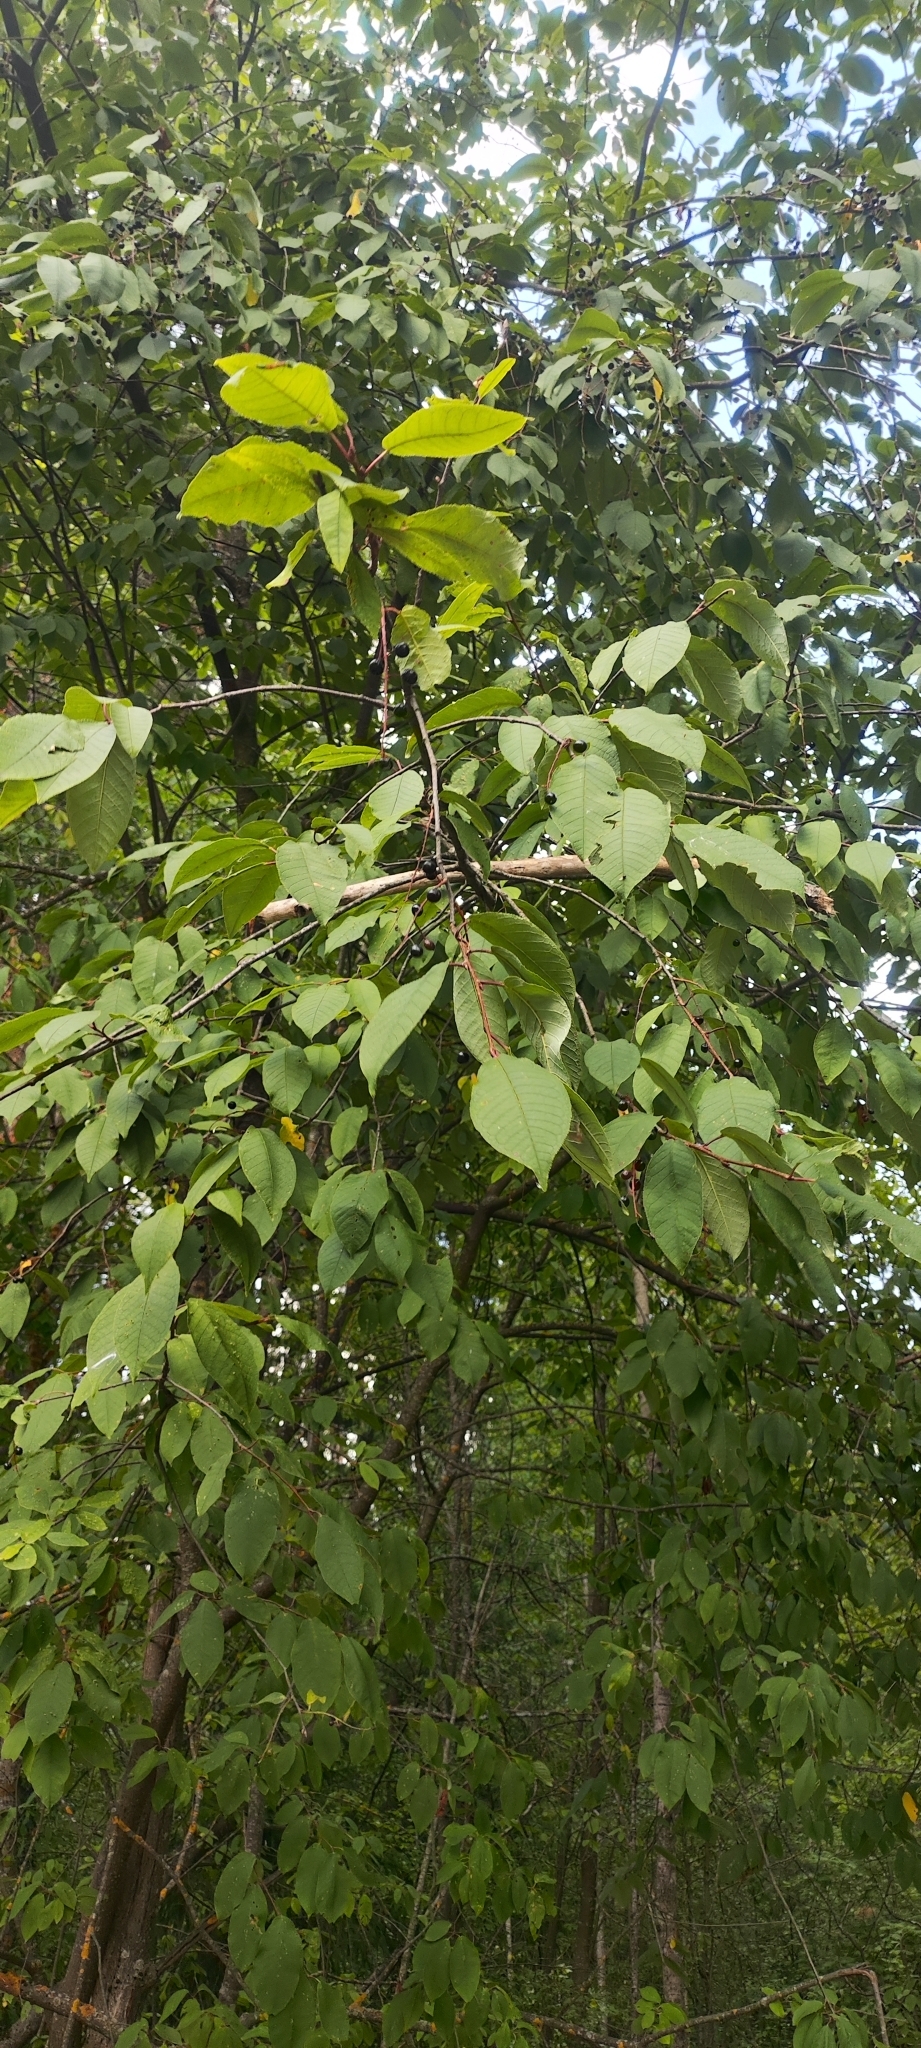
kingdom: Plantae
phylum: Tracheophyta
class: Magnoliopsida
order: Rosales
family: Rosaceae
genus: Prunus
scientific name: Prunus padus
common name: Bird cherry
